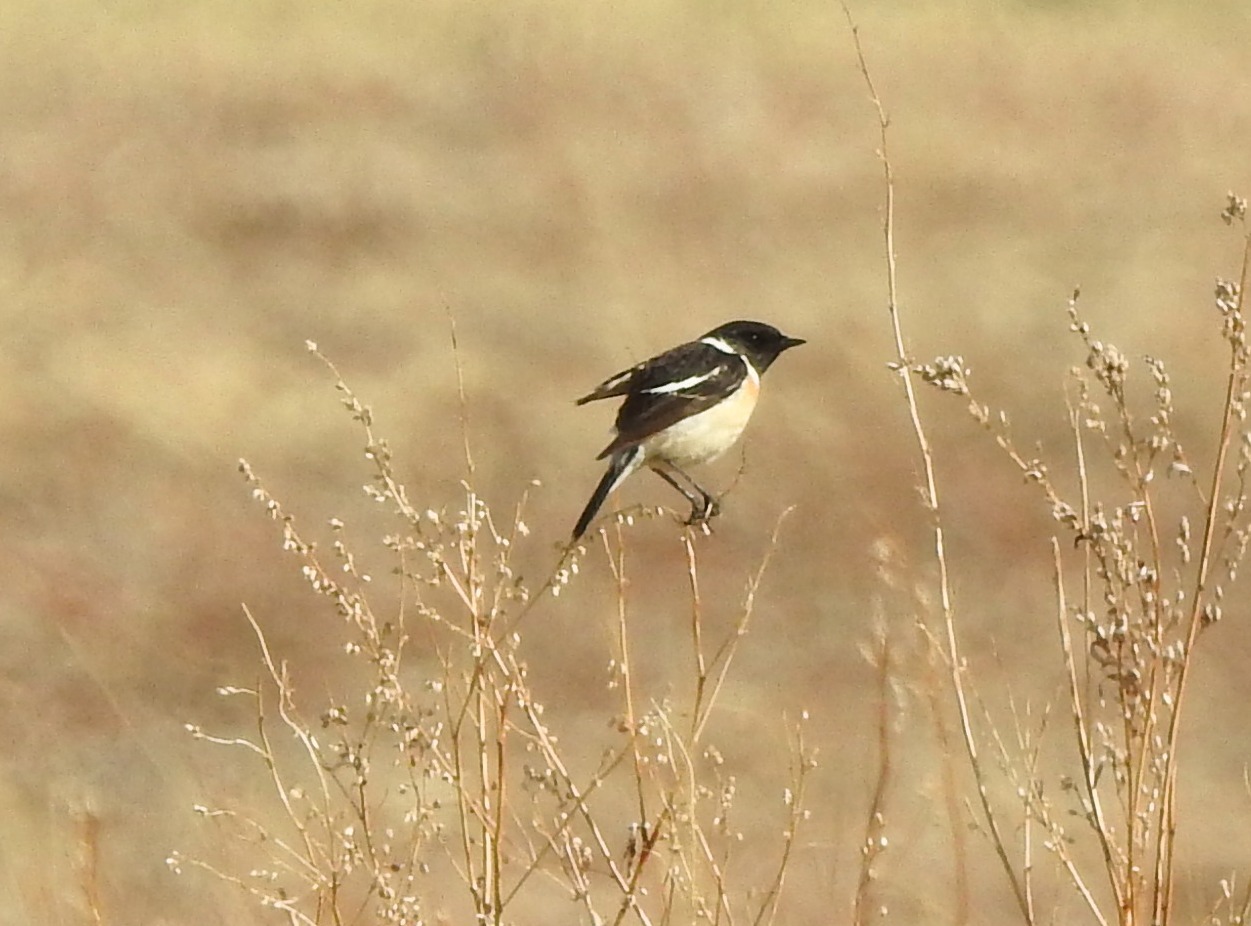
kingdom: Animalia
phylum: Chordata
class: Aves
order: Passeriformes
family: Muscicapidae
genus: Saxicola
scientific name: Saxicola stejnegeri
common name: Stejneger's stonechat
